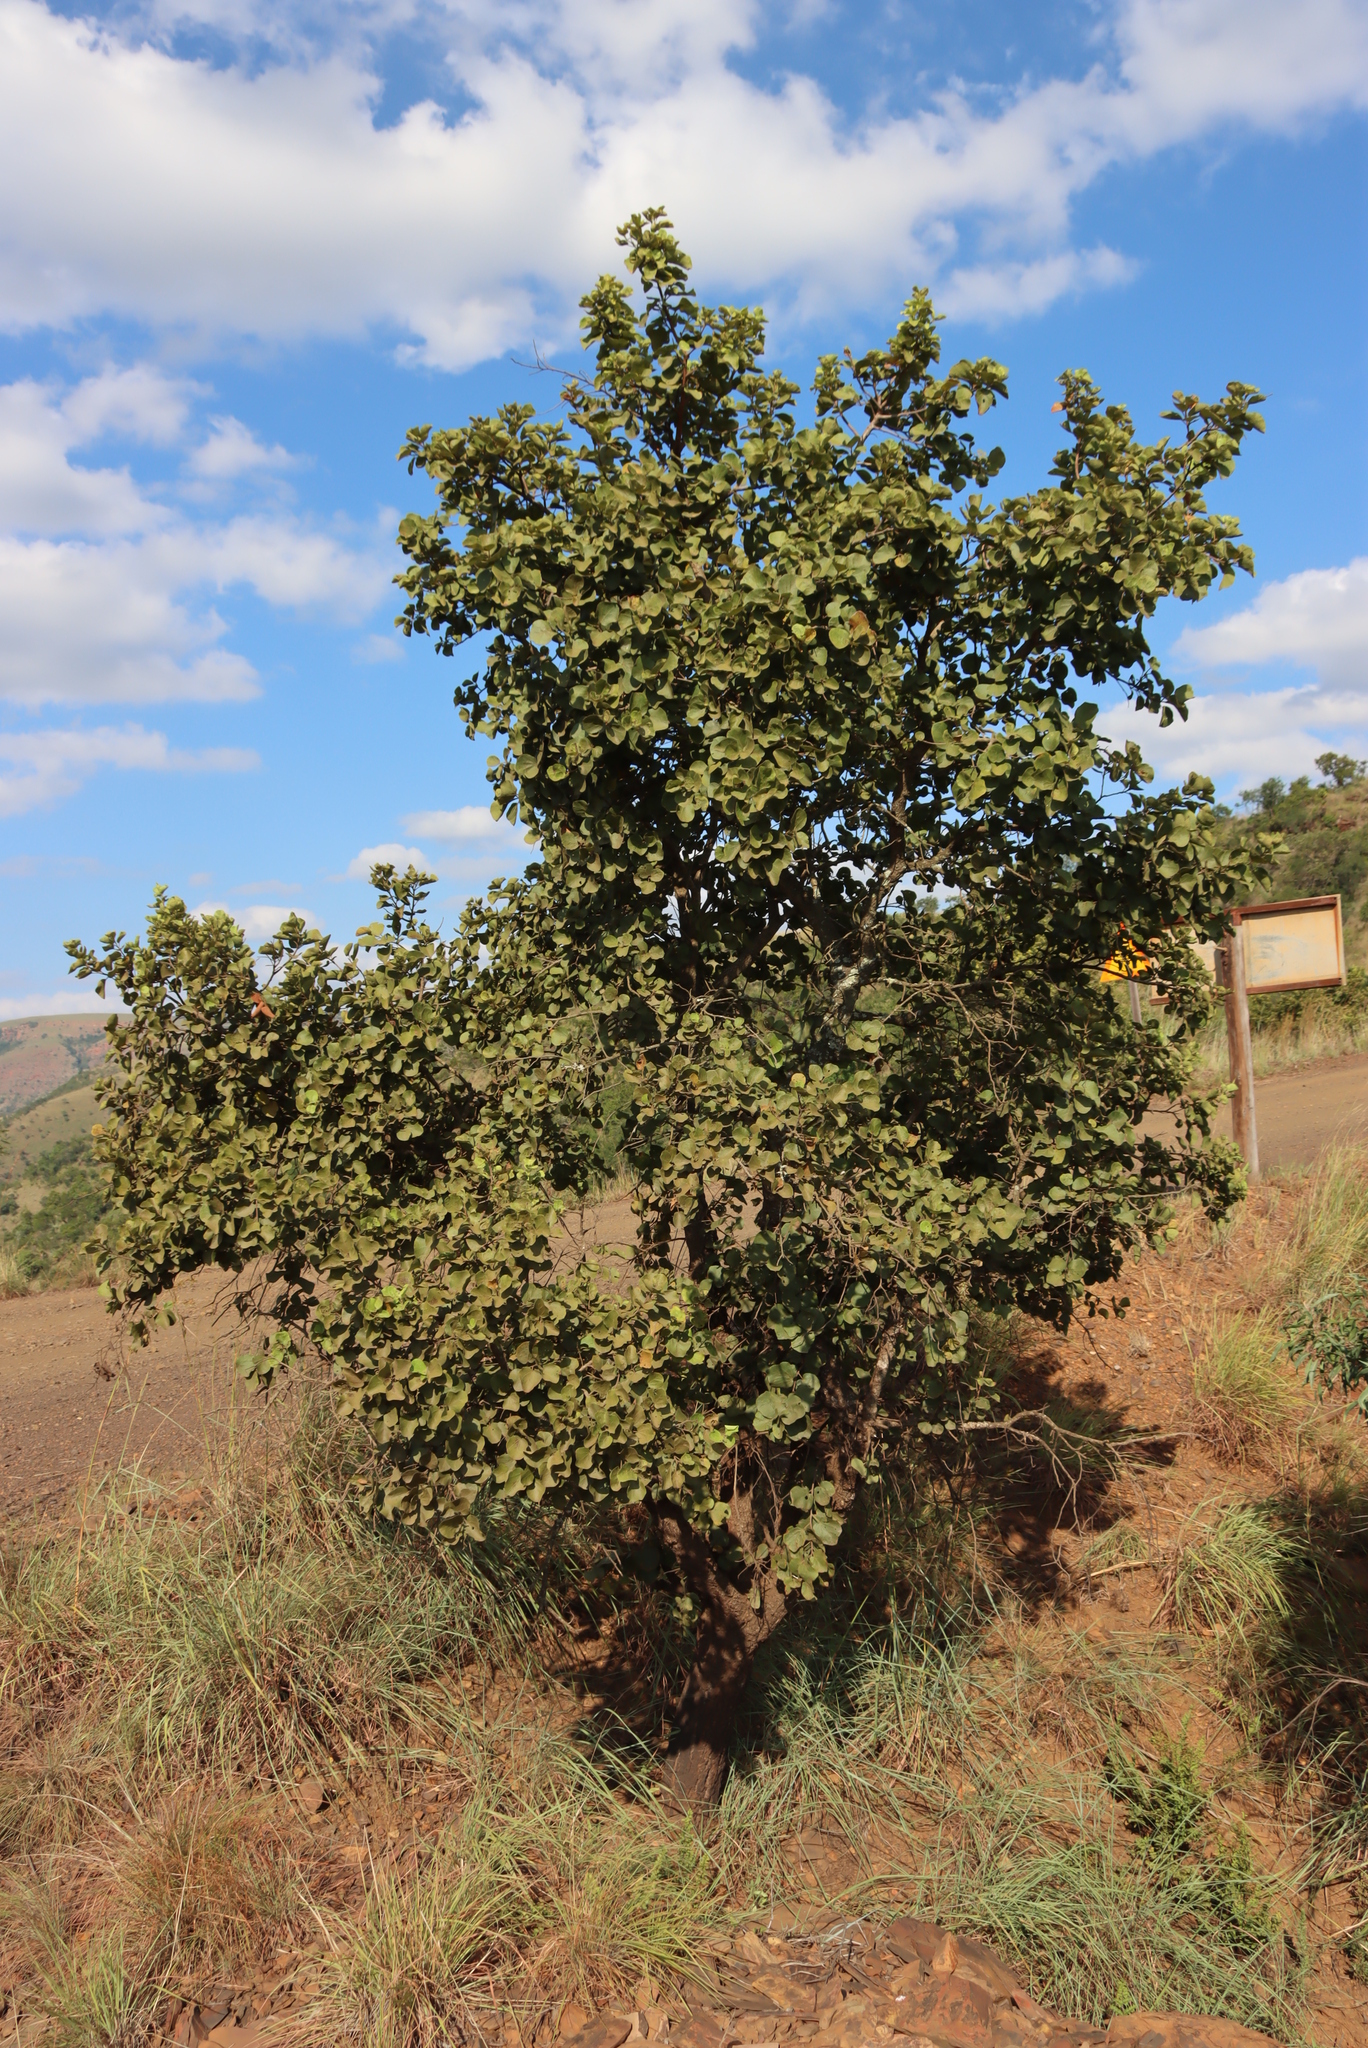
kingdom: Plantae
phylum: Tracheophyta
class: Magnoliopsida
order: Malvales
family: Malvaceae
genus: Dombeya
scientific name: Dombeya rotundifolia
